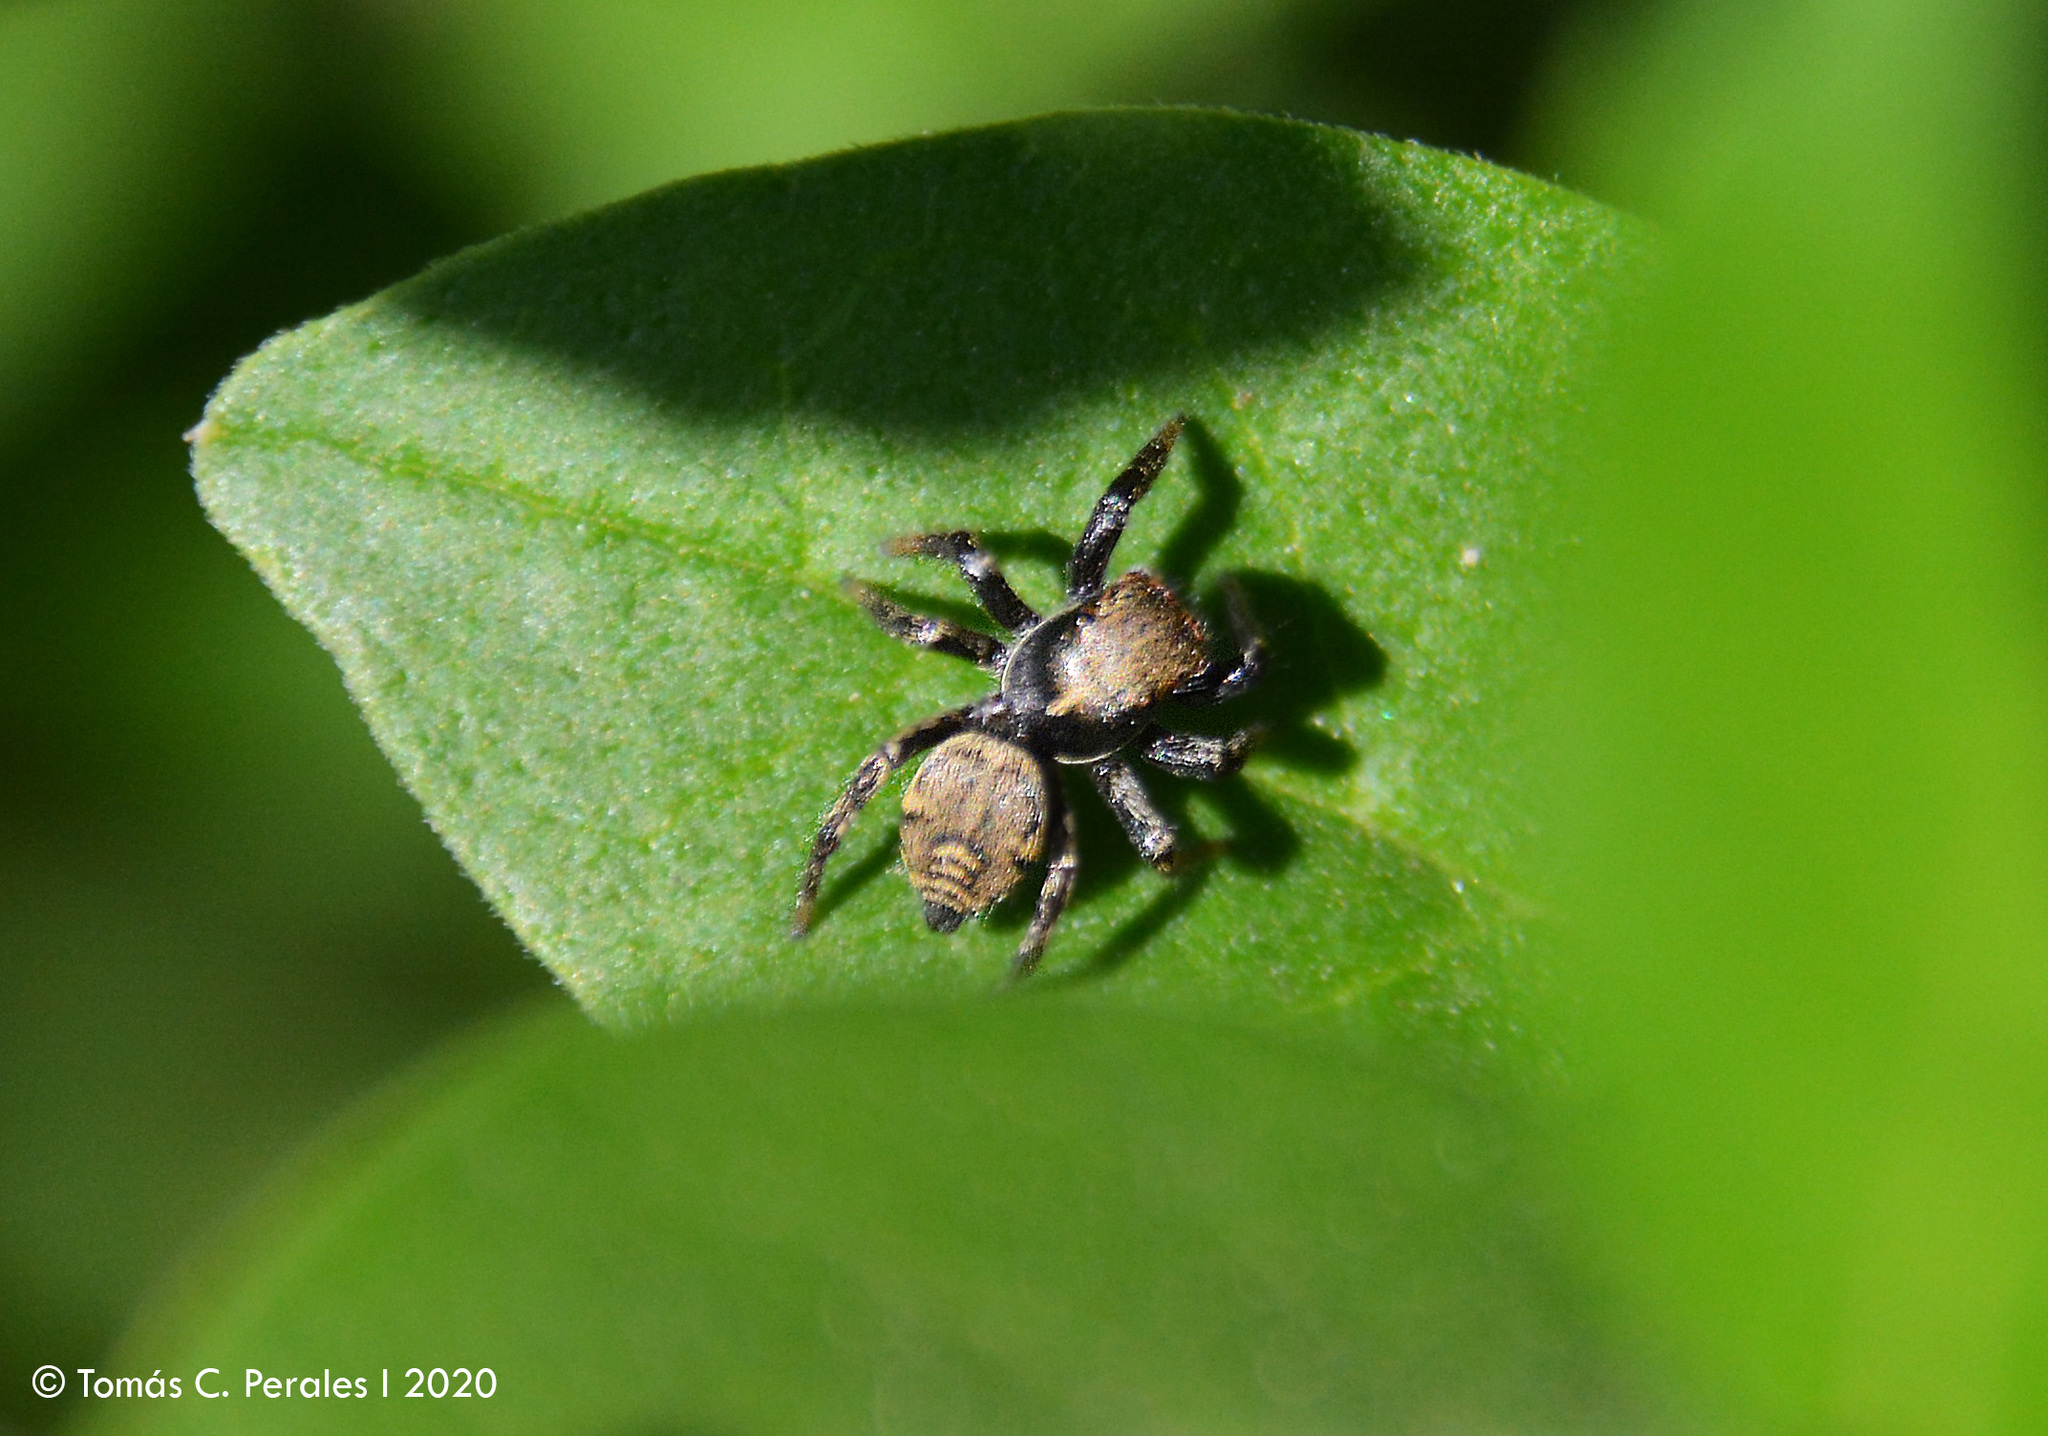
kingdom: Animalia
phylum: Arthropoda
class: Arachnida
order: Araneae
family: Salticidae
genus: Phiale
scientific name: Phiale roburifoliata
